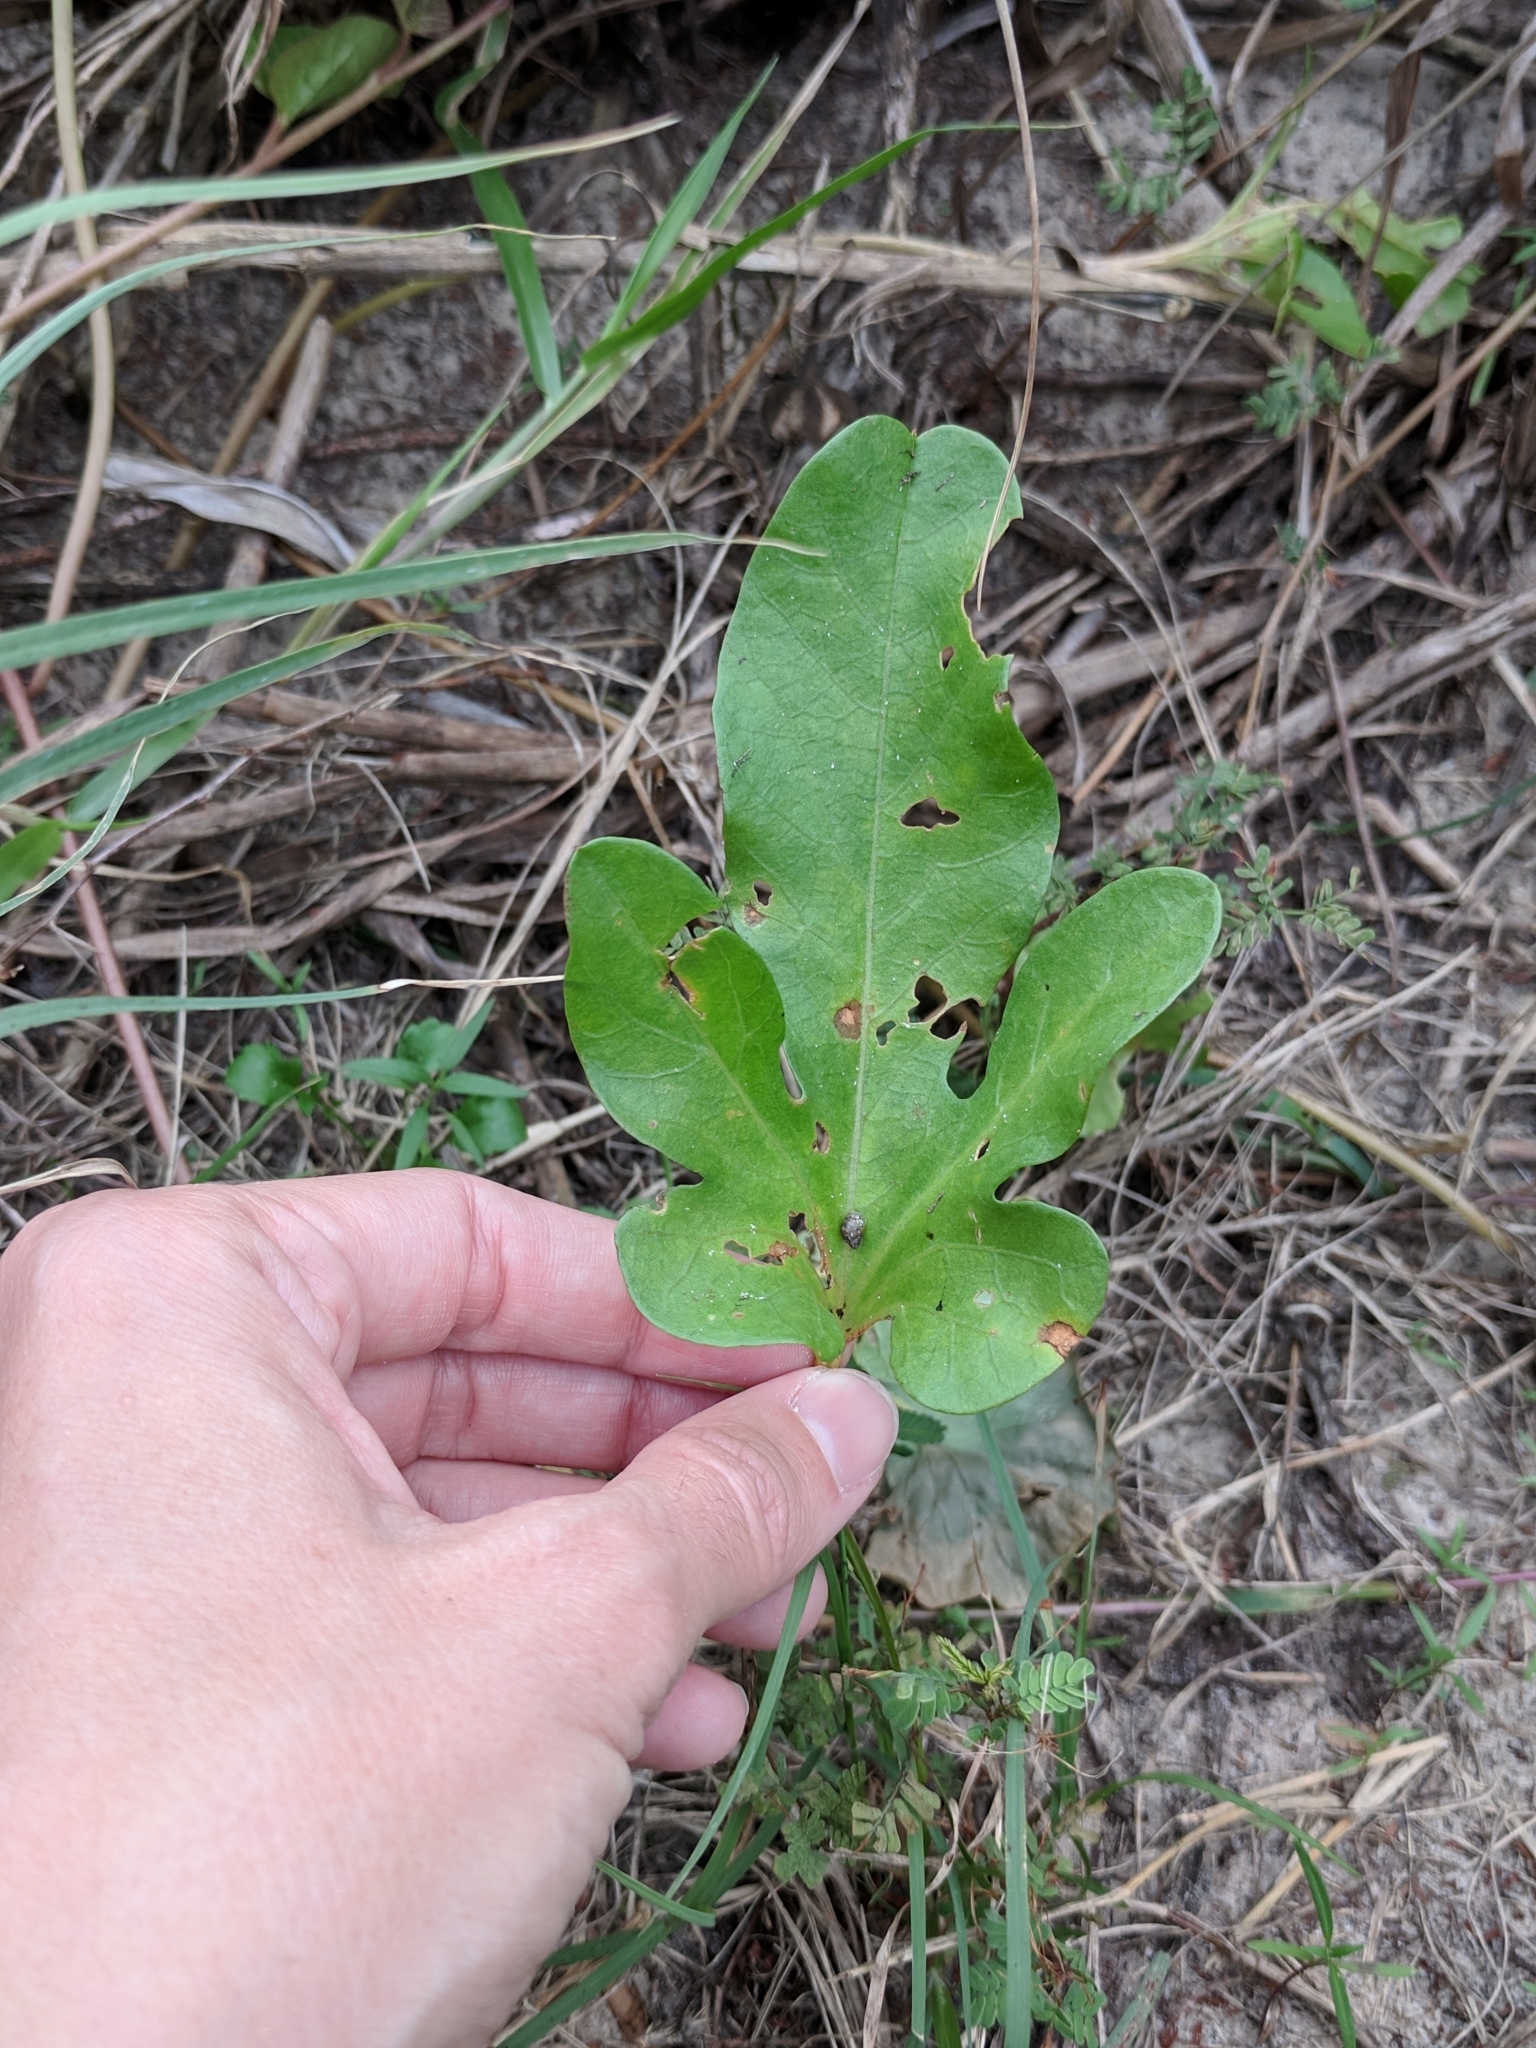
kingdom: Plantae
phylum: Tracheophyta
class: Magnoliopsida
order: Solanales
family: Convolvulaceae
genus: Ipomoea
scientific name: Ipomoea imperati
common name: Fiddle-leaf morning-glory
